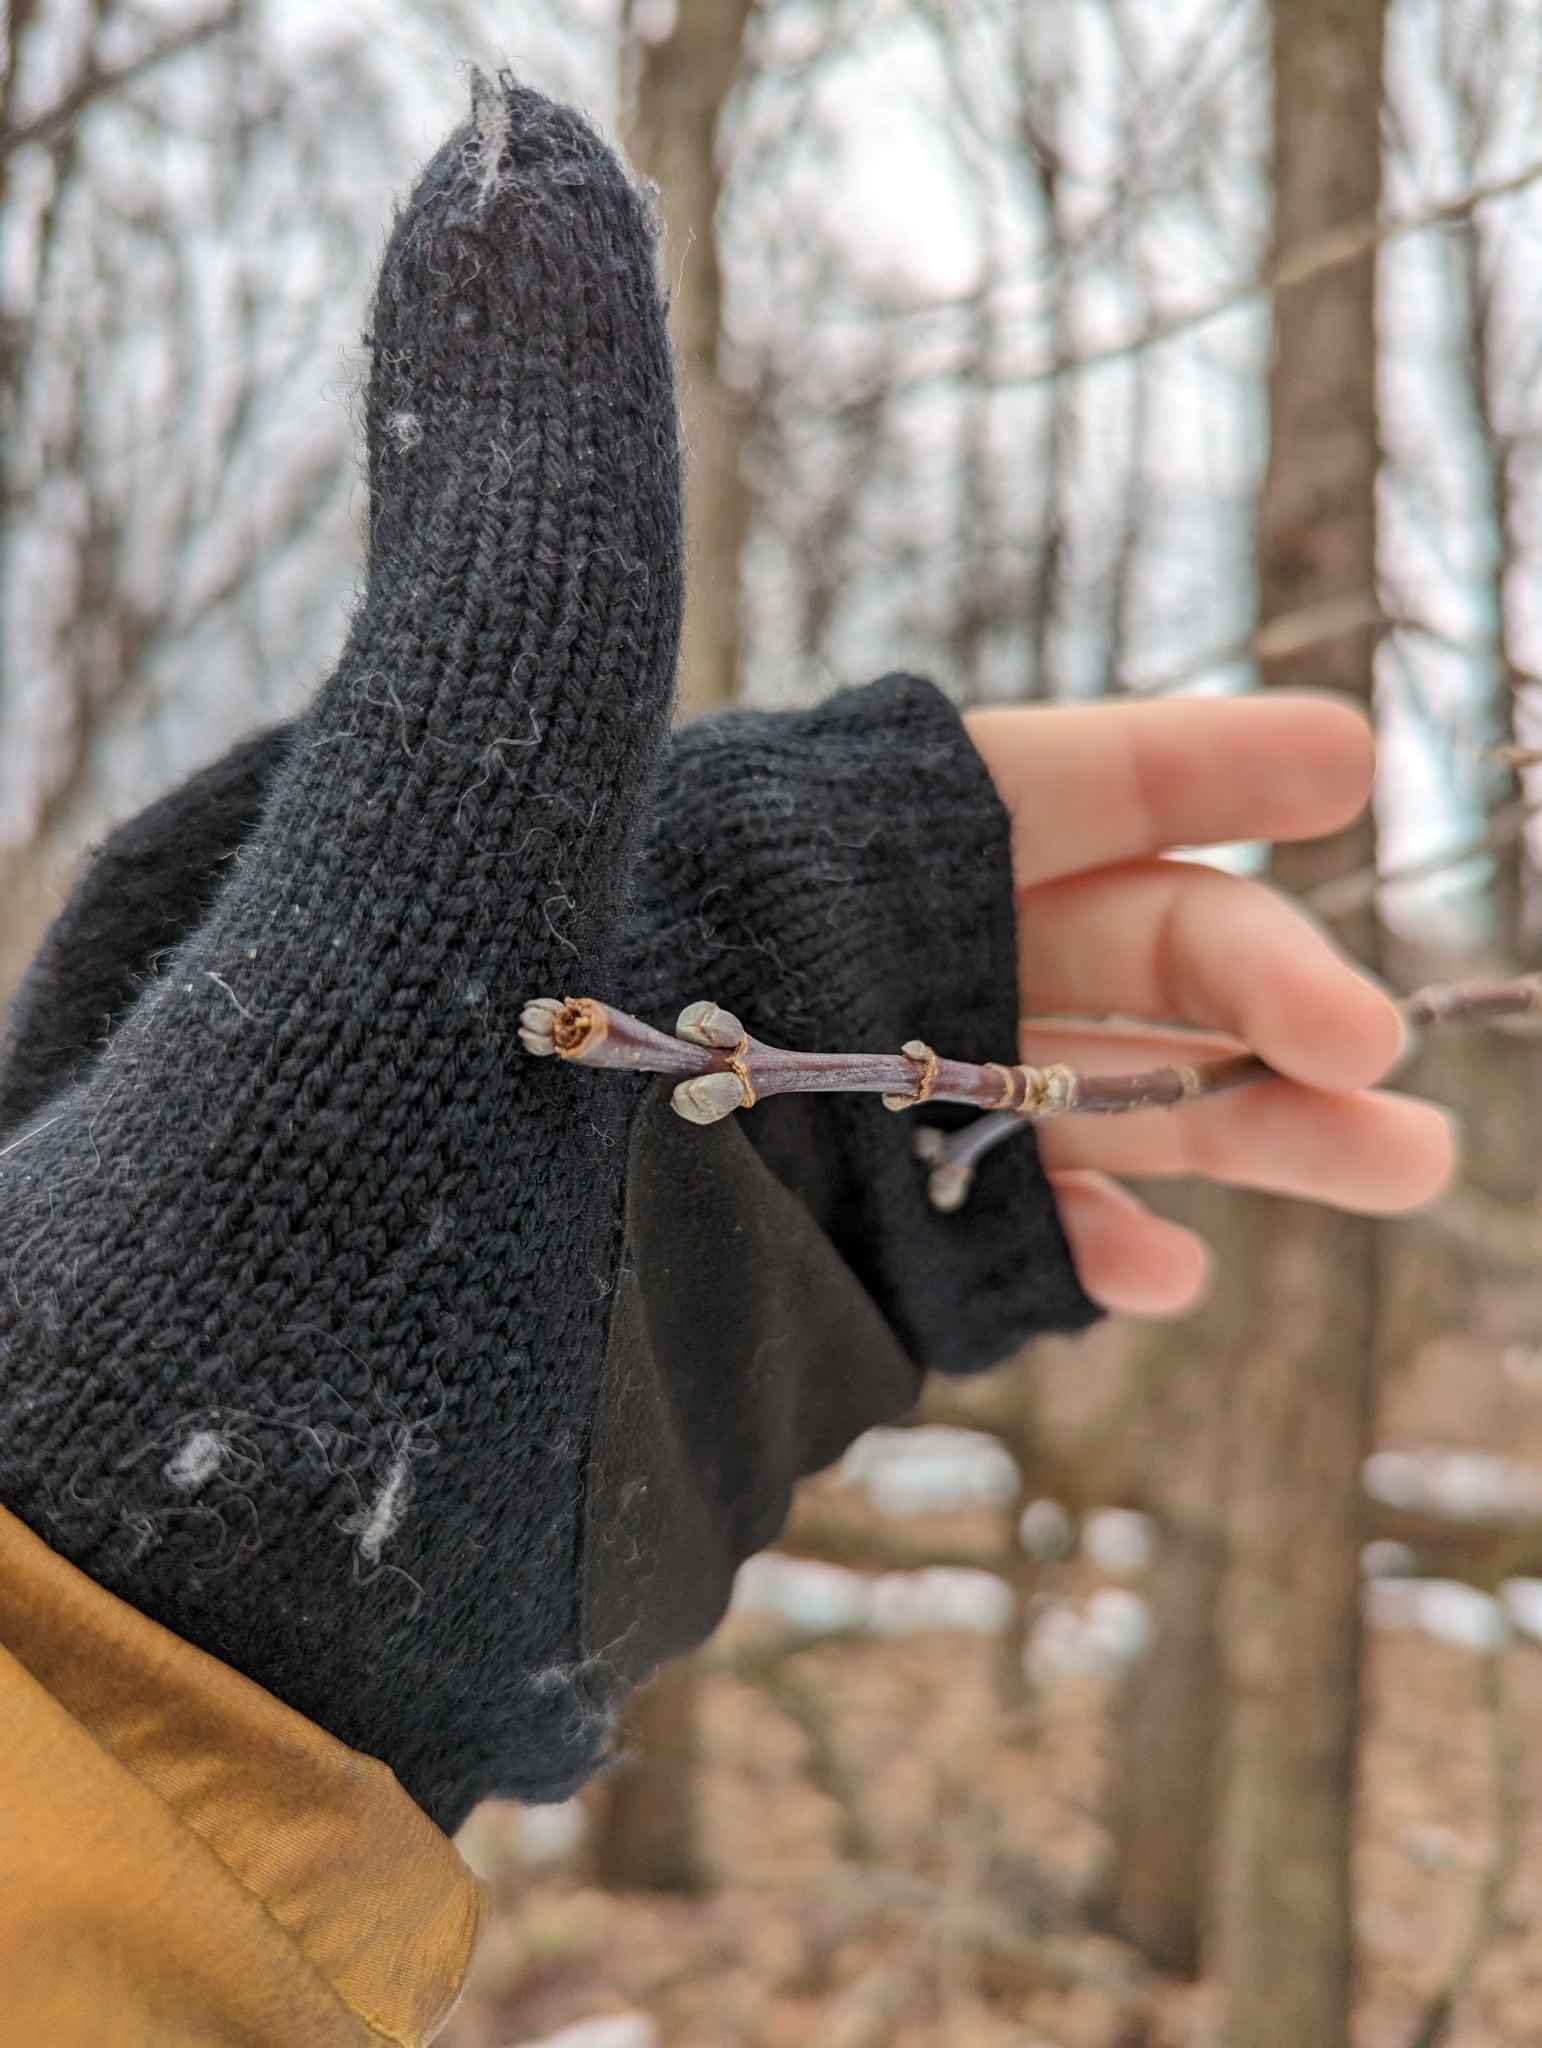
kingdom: Plantae
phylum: Tracheophyta
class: Magnoliopsida
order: Sapindales
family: Sapindaceae
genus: Acer
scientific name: Acer negundo
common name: Ashleaf maple
